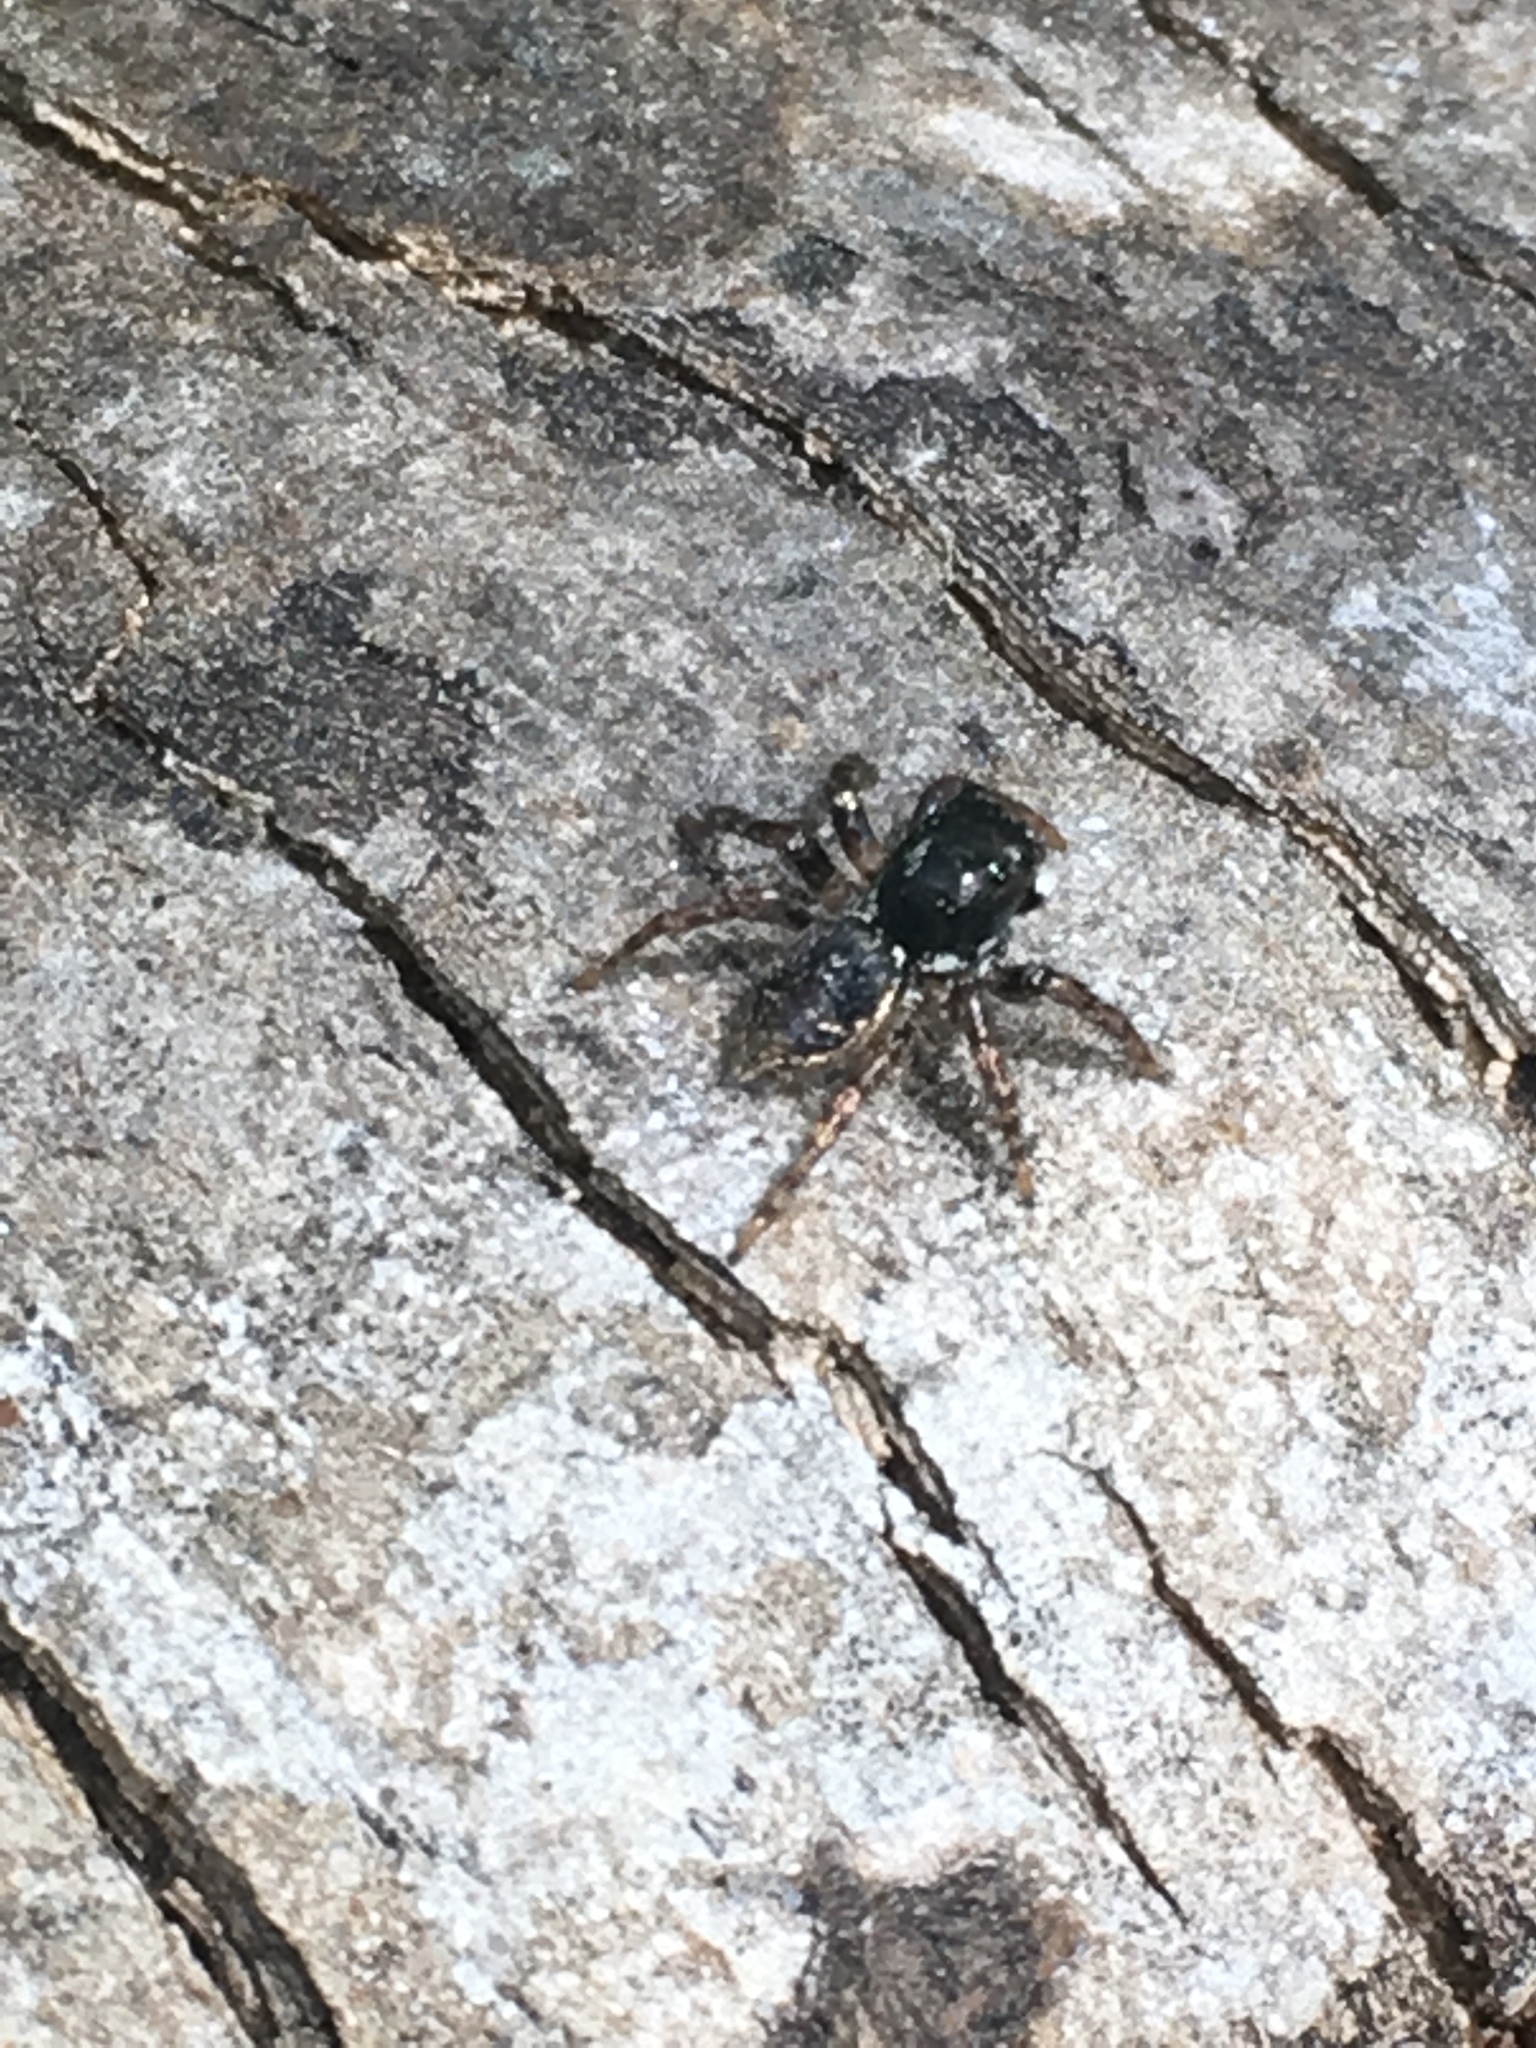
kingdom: Animalia
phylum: Arthropoda
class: Arachnida
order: Araneae
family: Salticidae
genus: Anasaitis
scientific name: Anasaitis canosa
